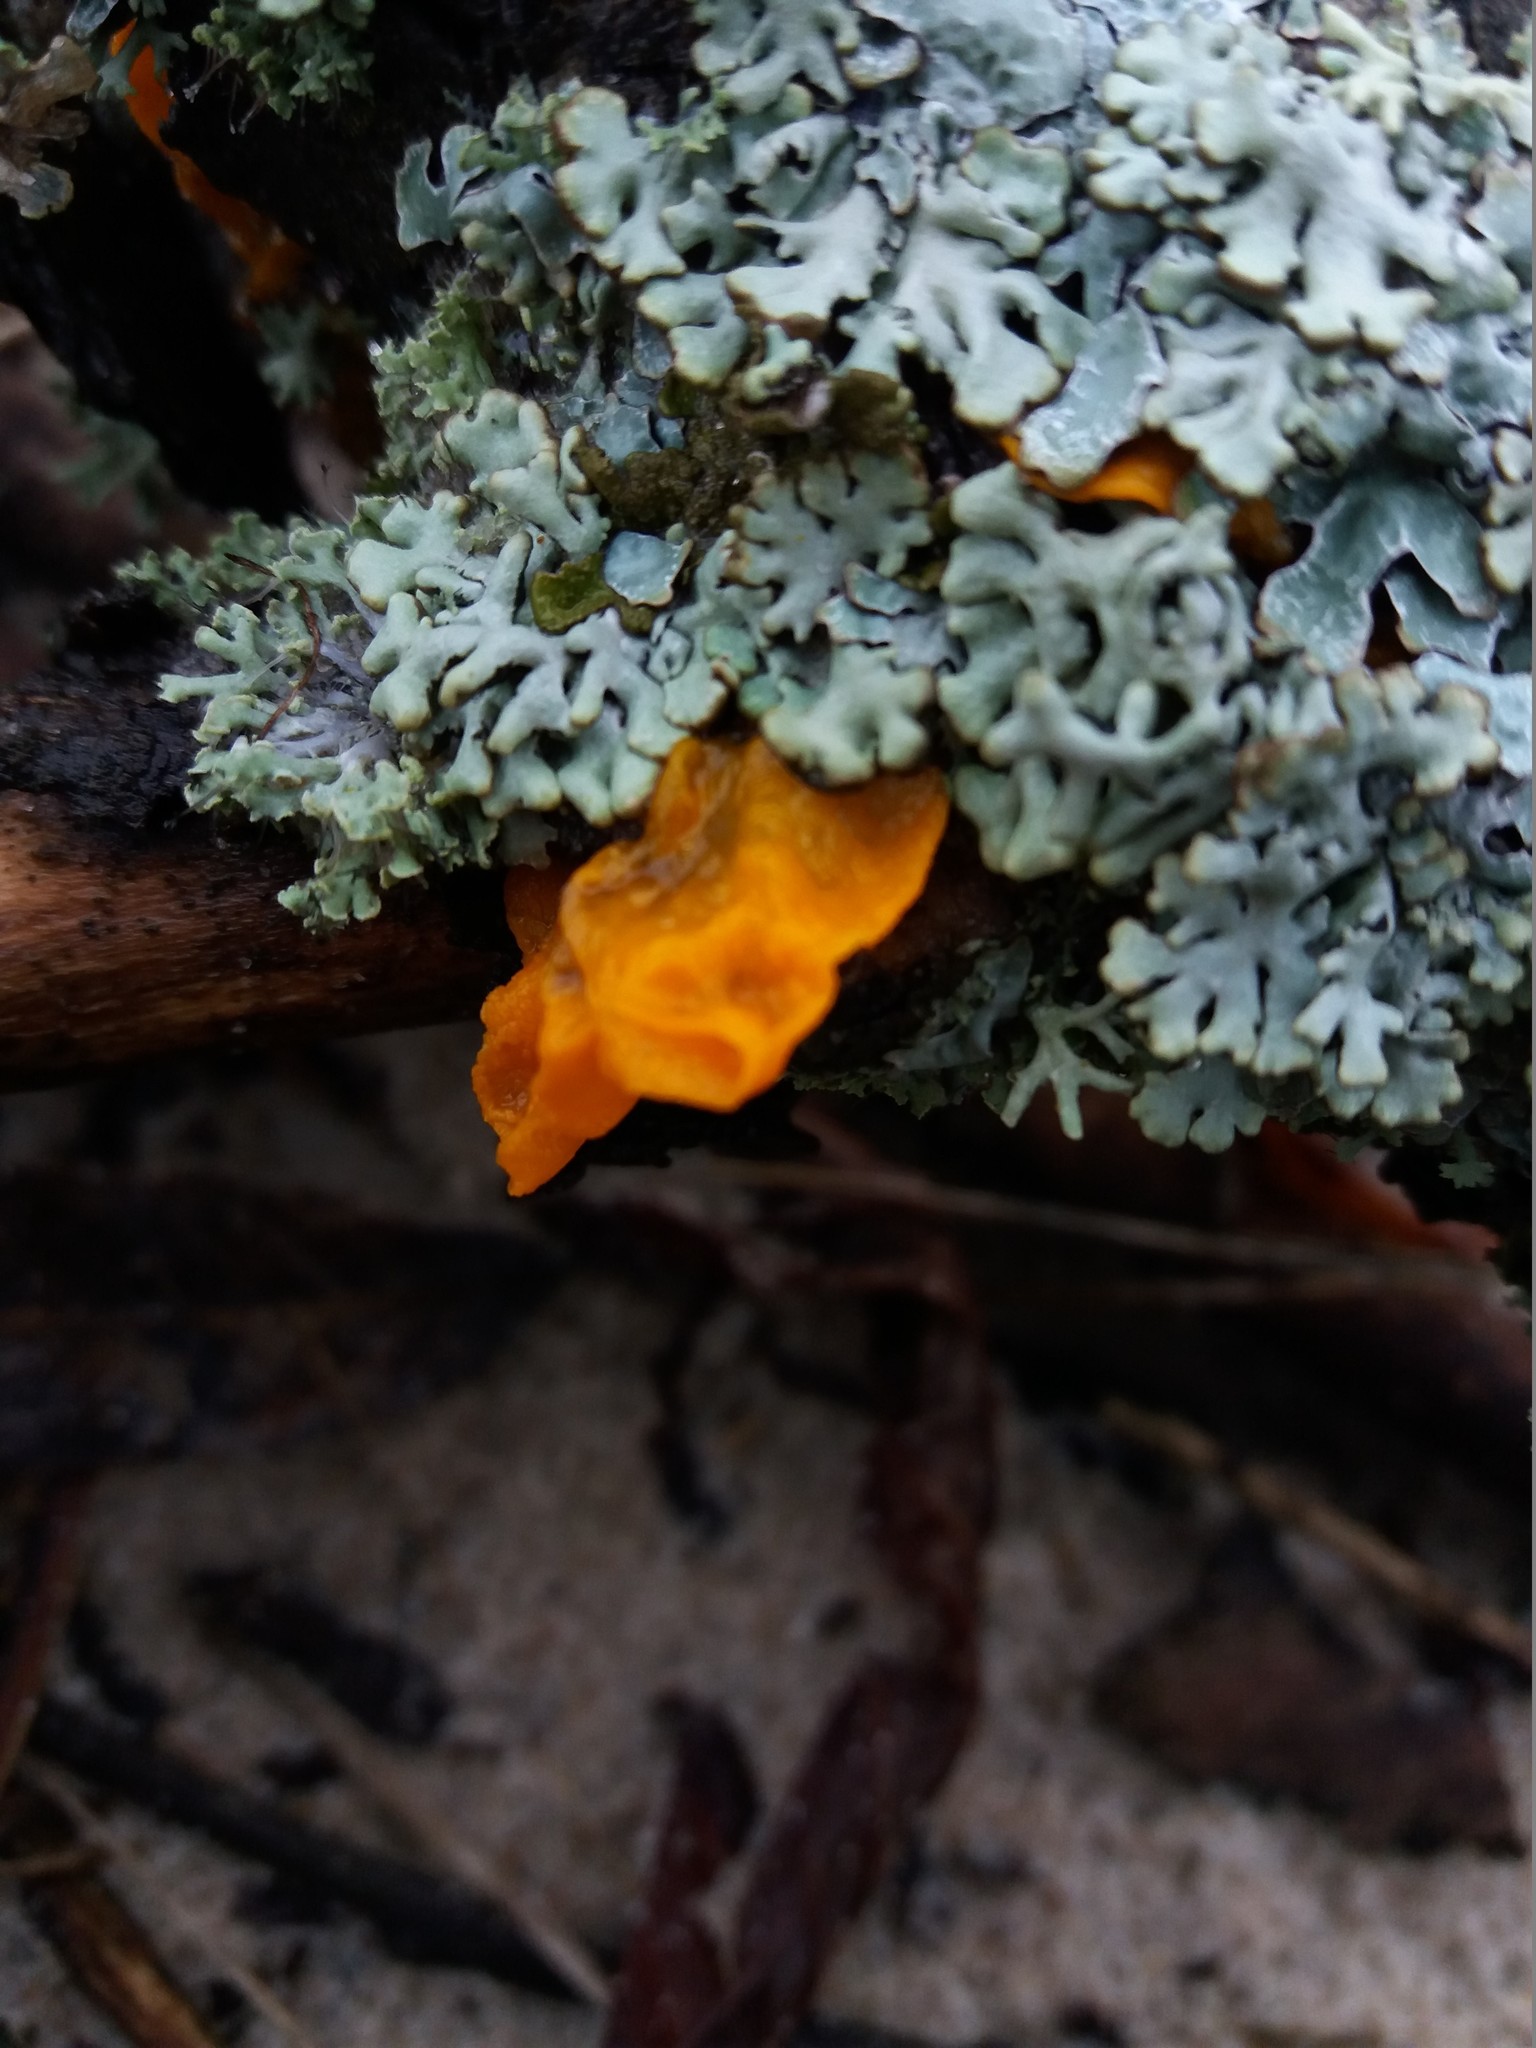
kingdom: Fungi
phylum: Basidiomycota
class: Tremellomycetes
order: Tremellales
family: Tremellaceae
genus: Tremella
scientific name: Tremella mesenterica
